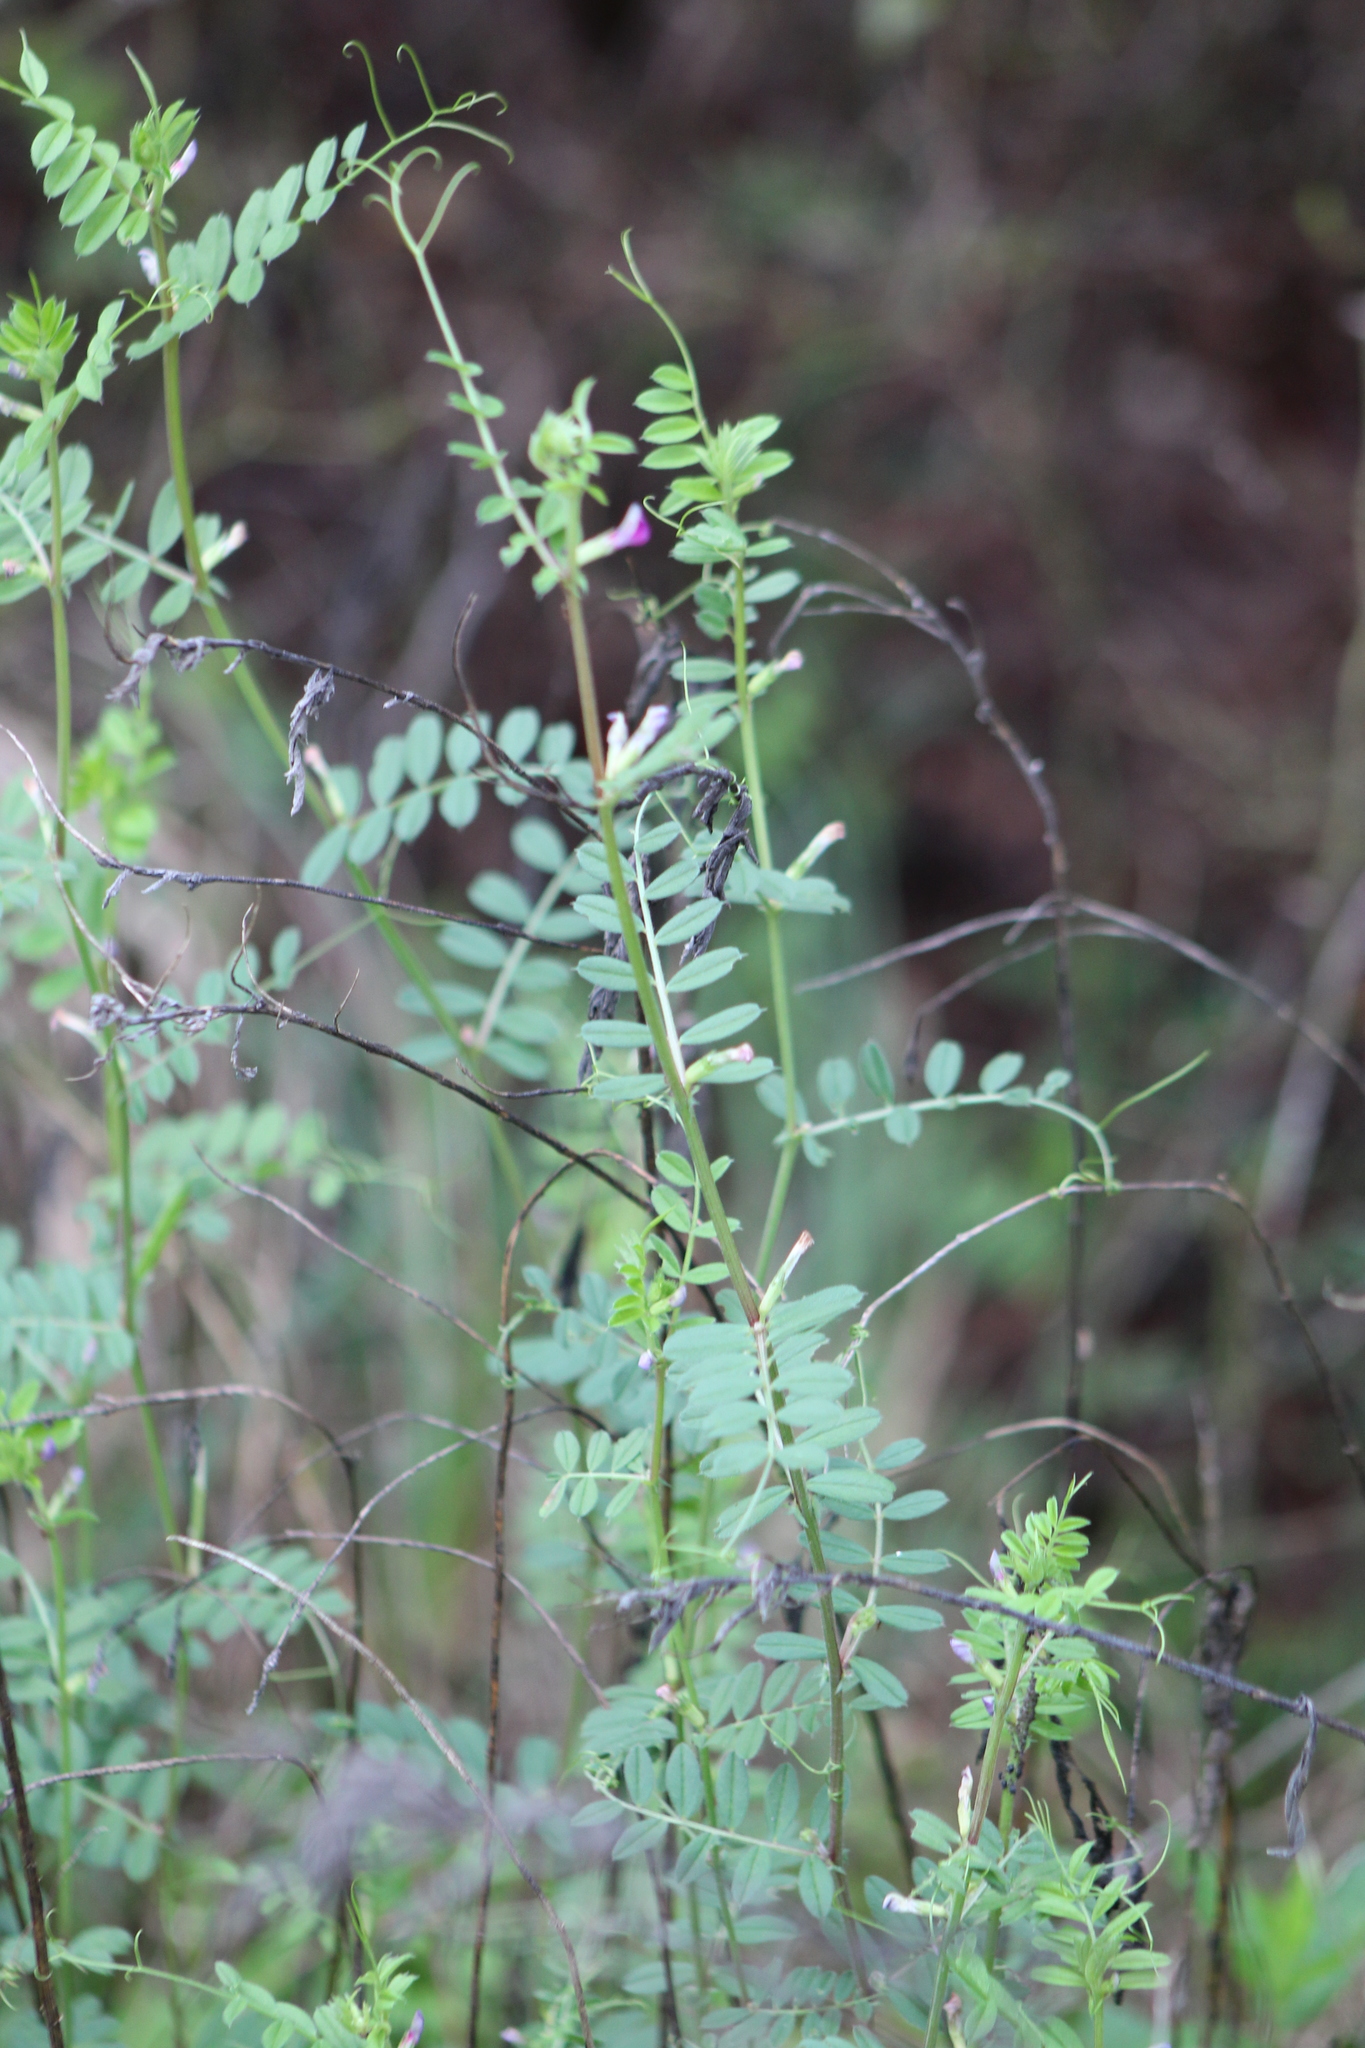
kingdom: Plantae
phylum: Tracheophyta
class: Magnoliopsida
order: Fabales
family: Fabaceae
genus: Vicia
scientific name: Vicia sativa
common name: Garden vetch
